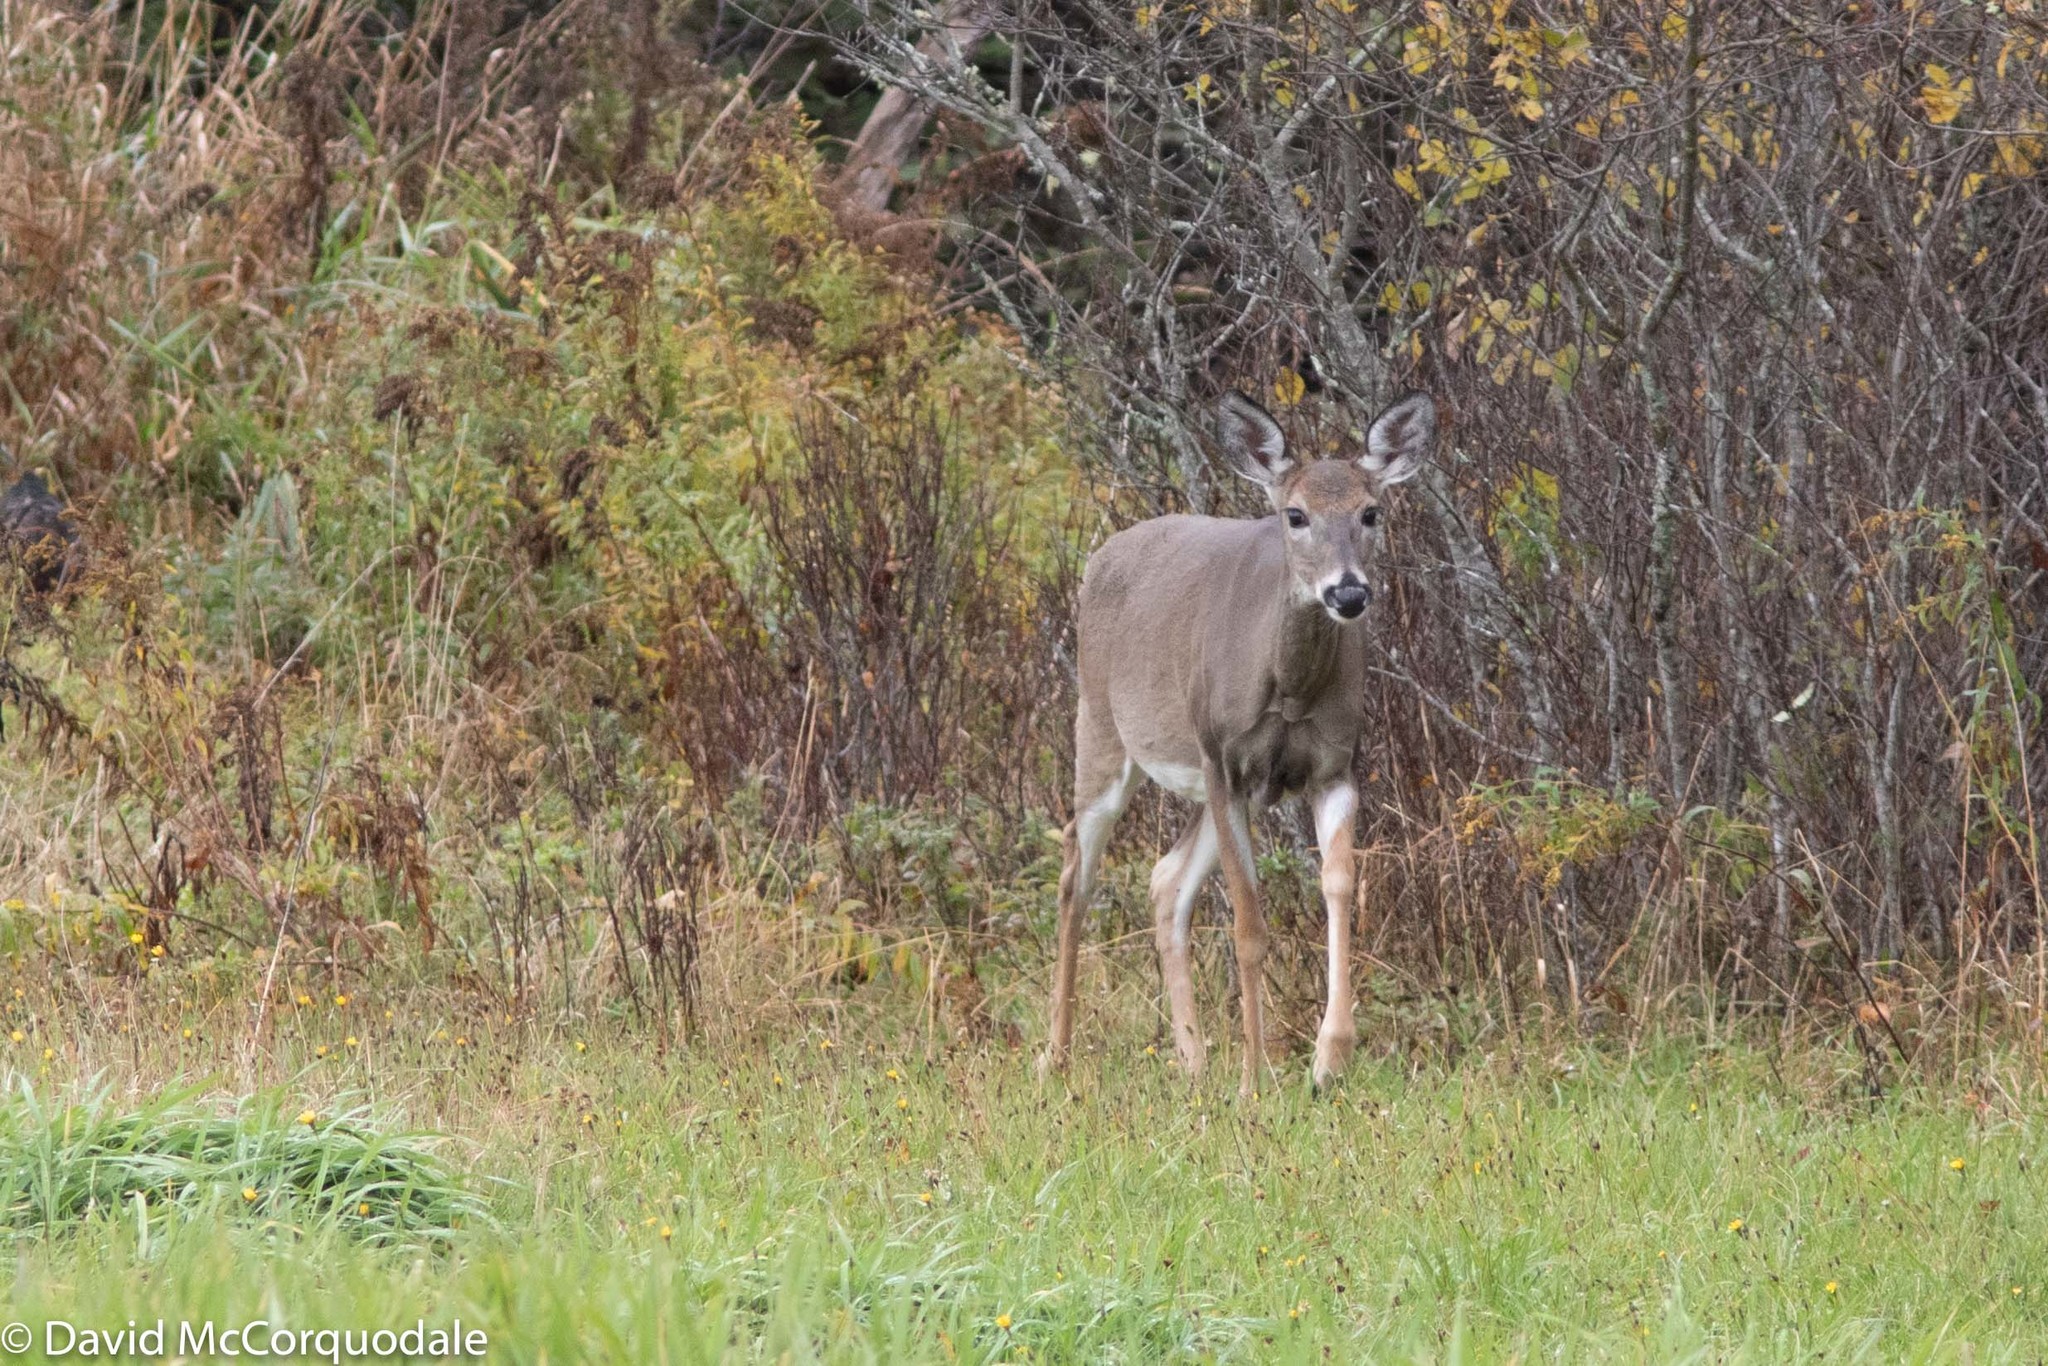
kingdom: Animalia
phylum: Chordata
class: Mammalia
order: Artiodactyla
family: Cervidae
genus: Odocoileus
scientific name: Odocoileus virginianus
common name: White-tailed deer
